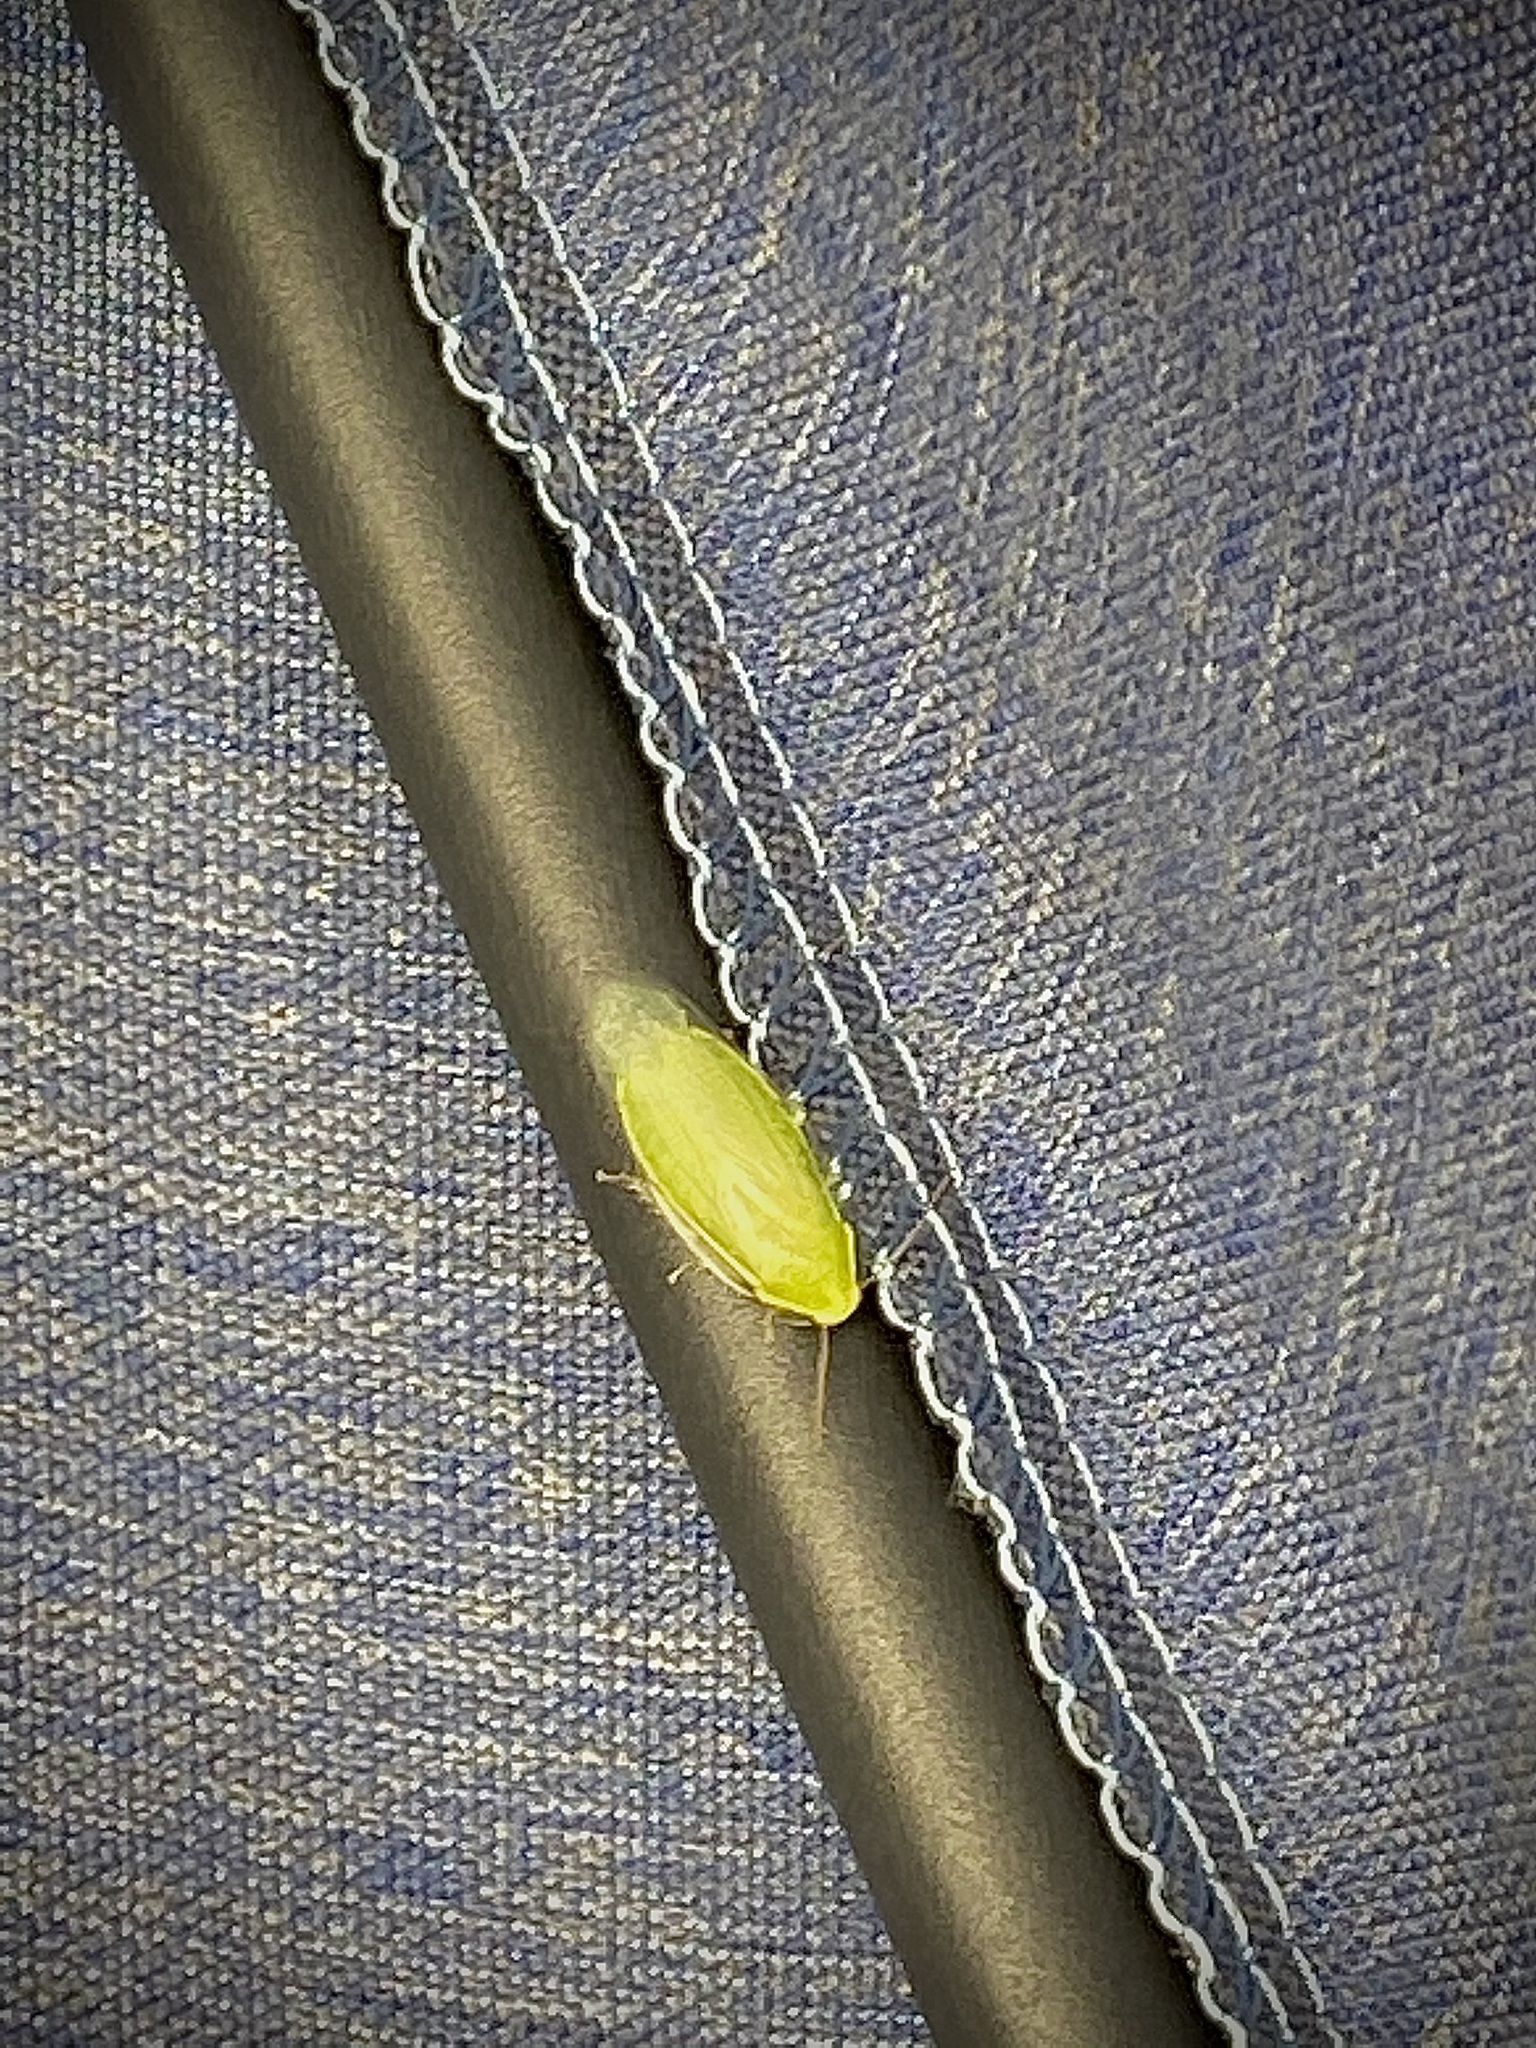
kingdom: Animalia
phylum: Arthropoda
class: Insecta
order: Blattodea
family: Blaberidae
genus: Panchlora
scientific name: Panchlora nivea
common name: Cuban cockroach
